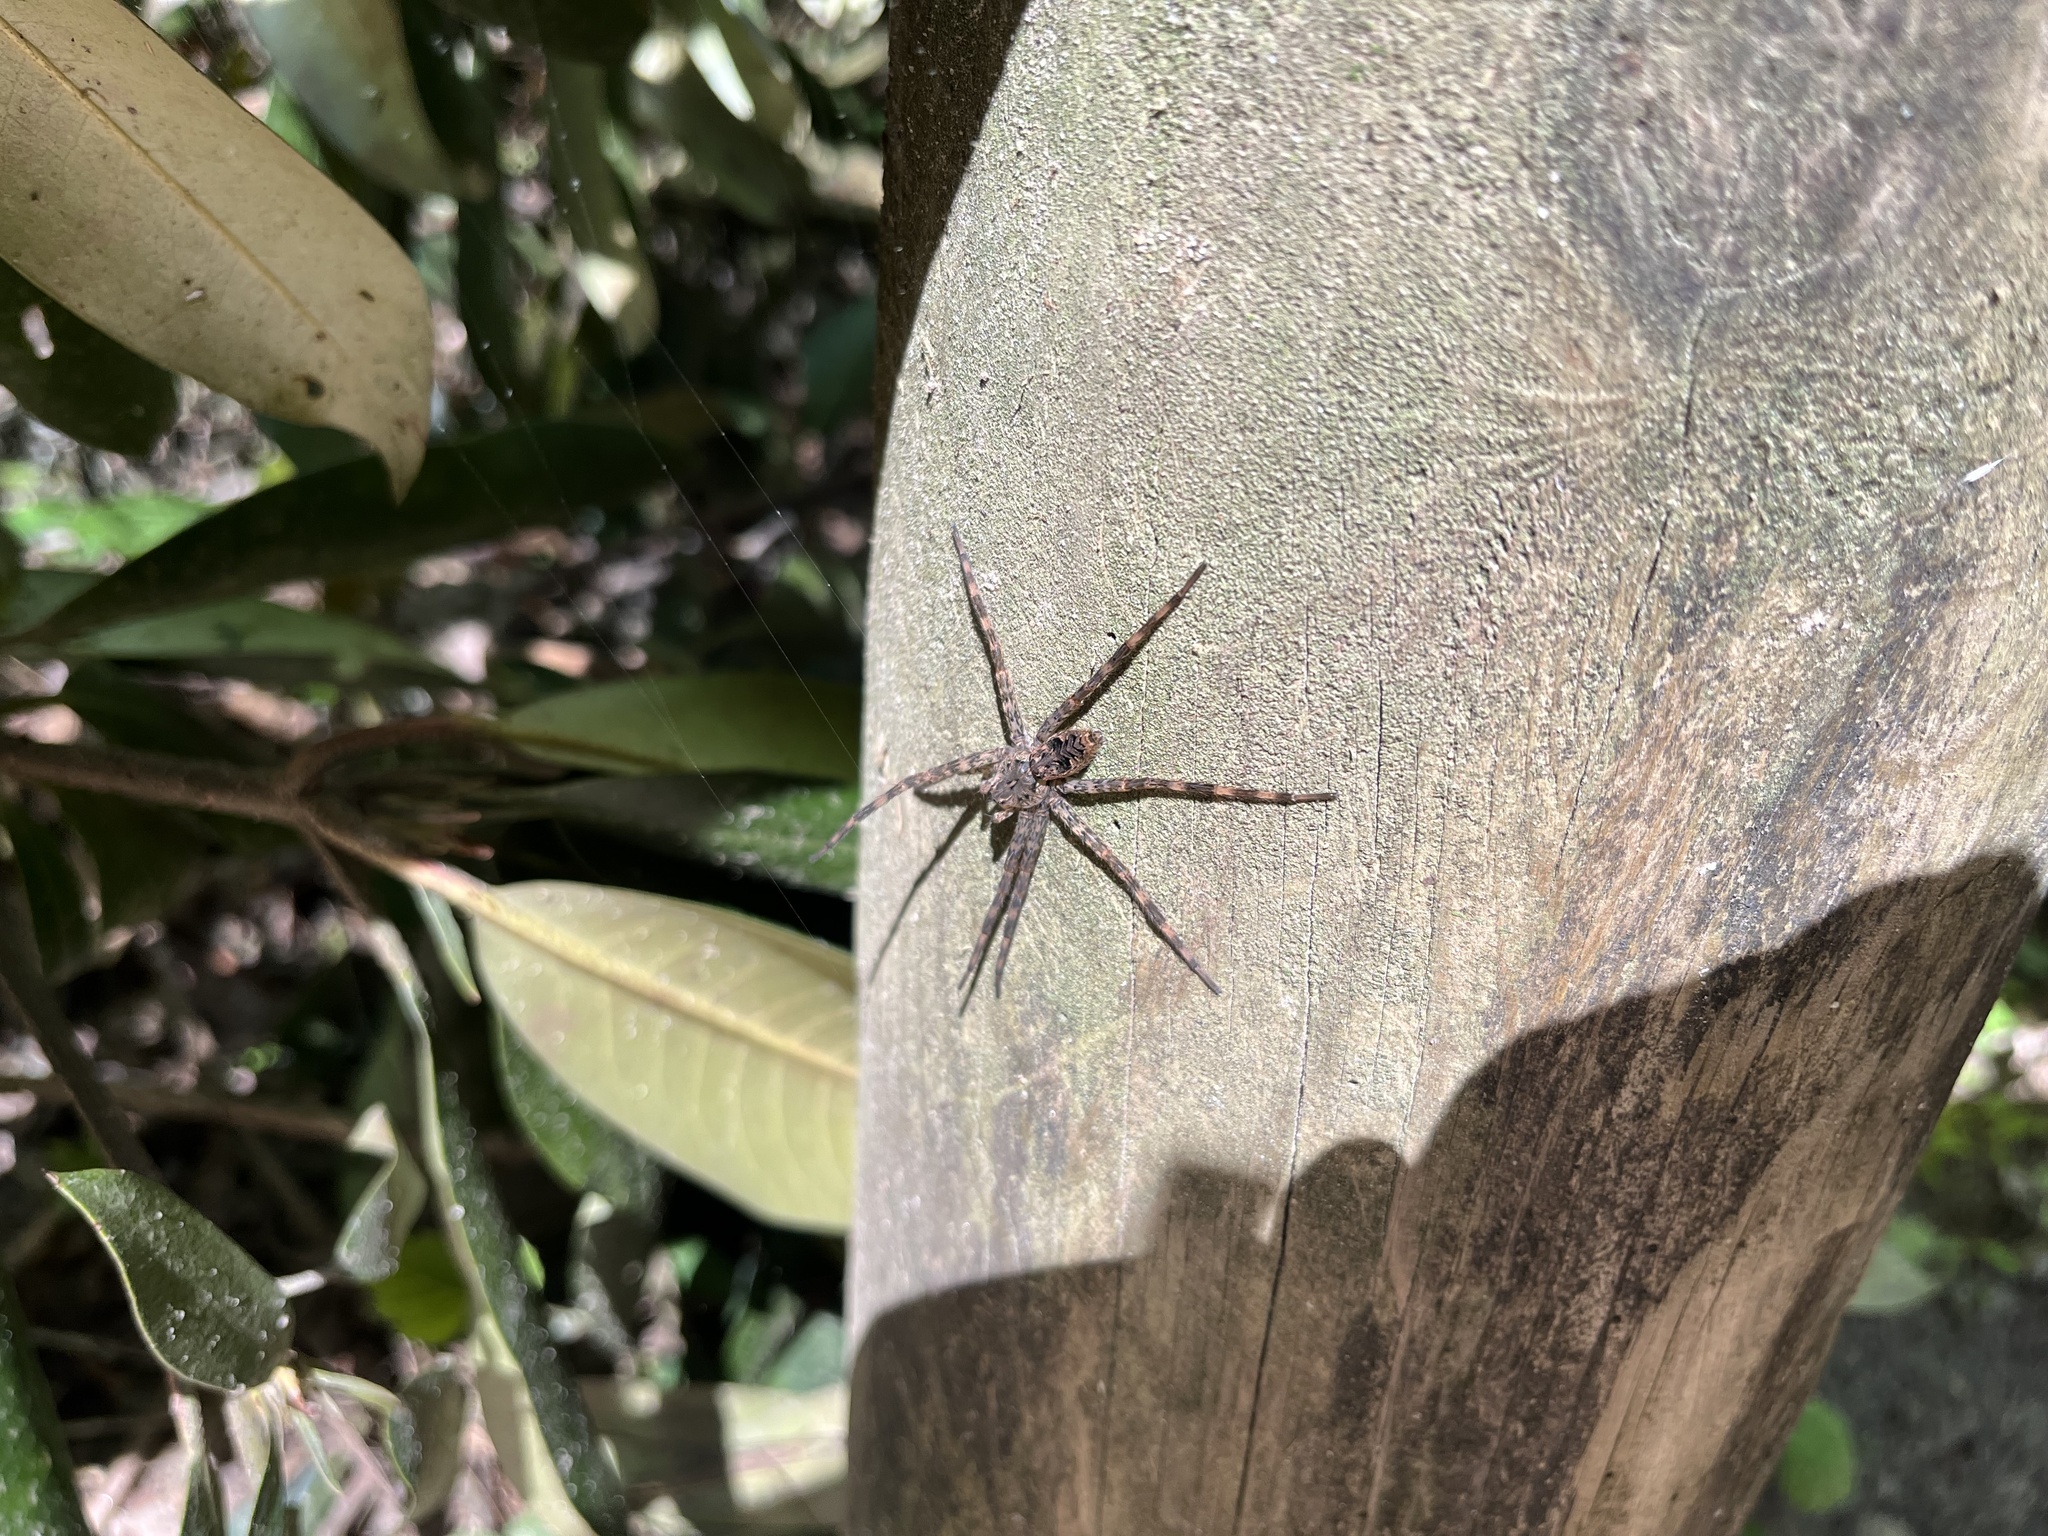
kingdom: Animalia
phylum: Arthropoda
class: Arachnida
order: Araneae
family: Pisauridae
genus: Dolomedes
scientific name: Dolomedes tenebrosus
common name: Dark fishing spider
